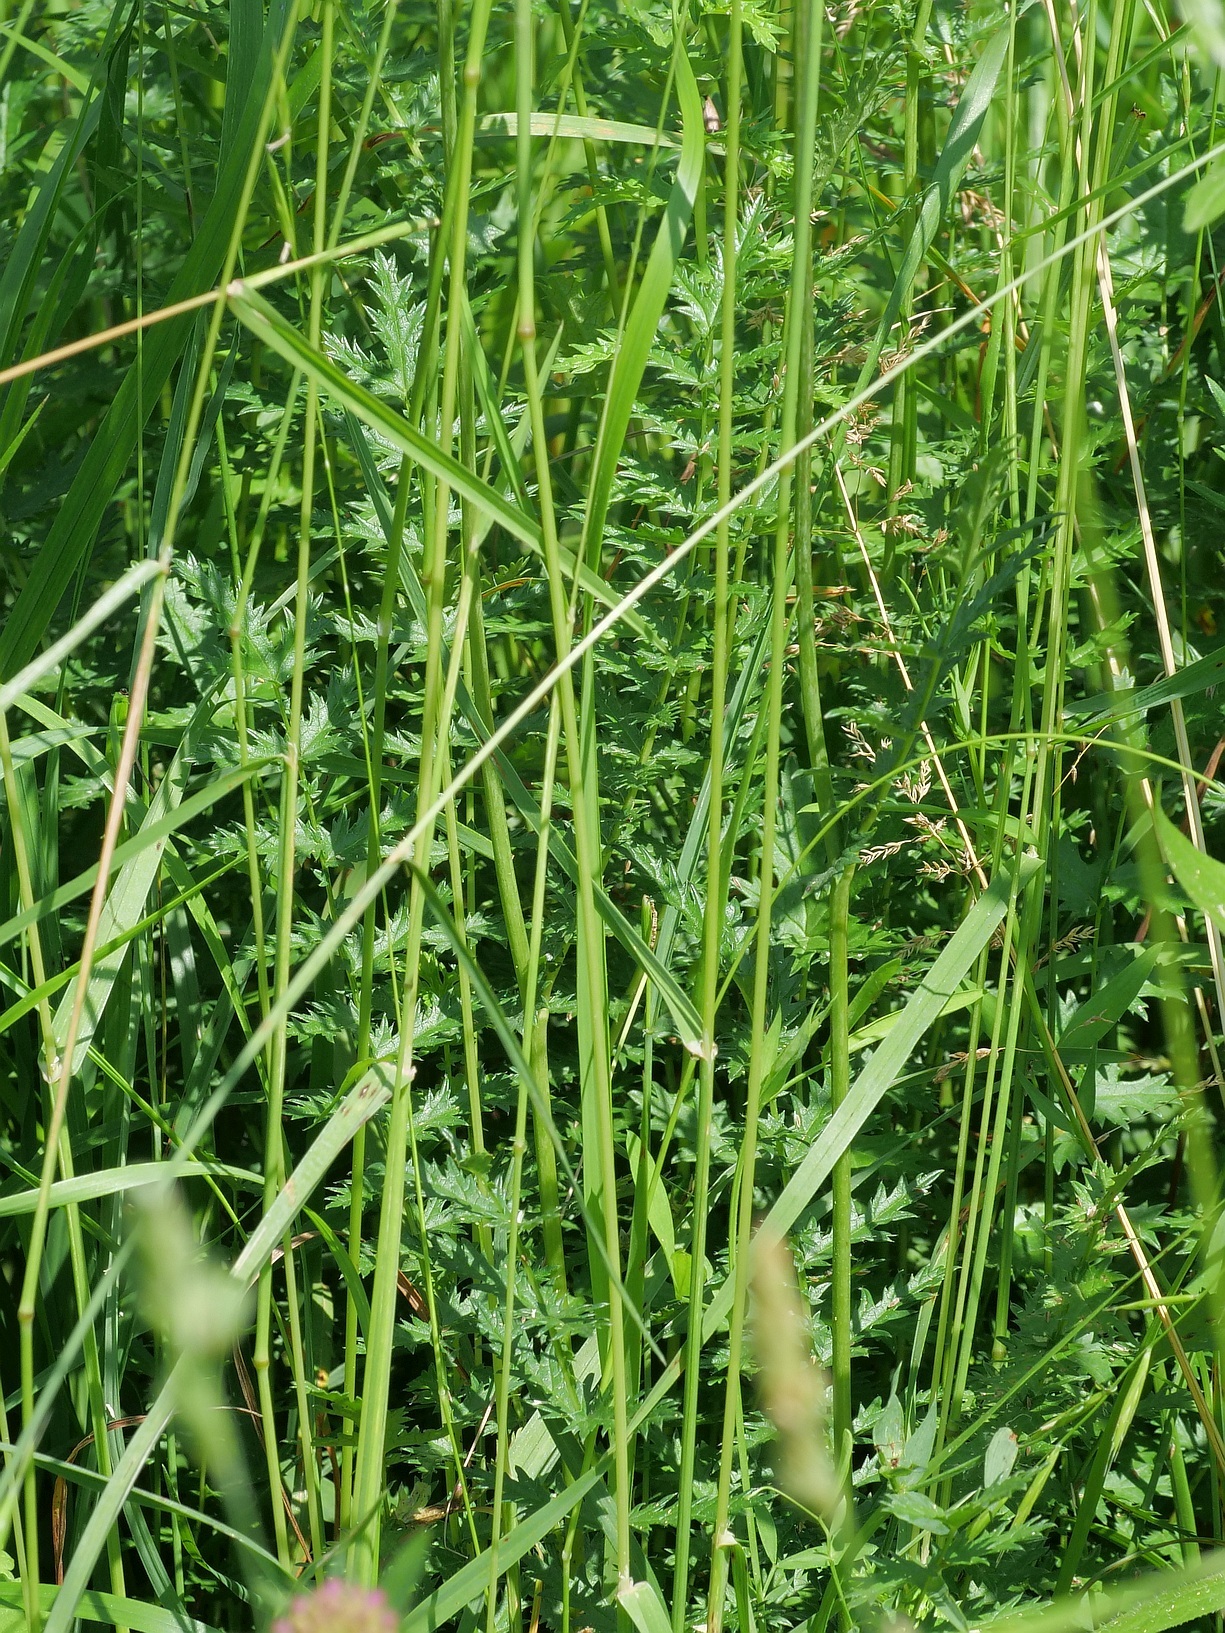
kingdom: Plantae
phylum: Tracheophyta
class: Magnoliopsida
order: Rosales
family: Rosaceae
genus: Filipendula
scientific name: Filipendula vulgaris
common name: Dropwort
